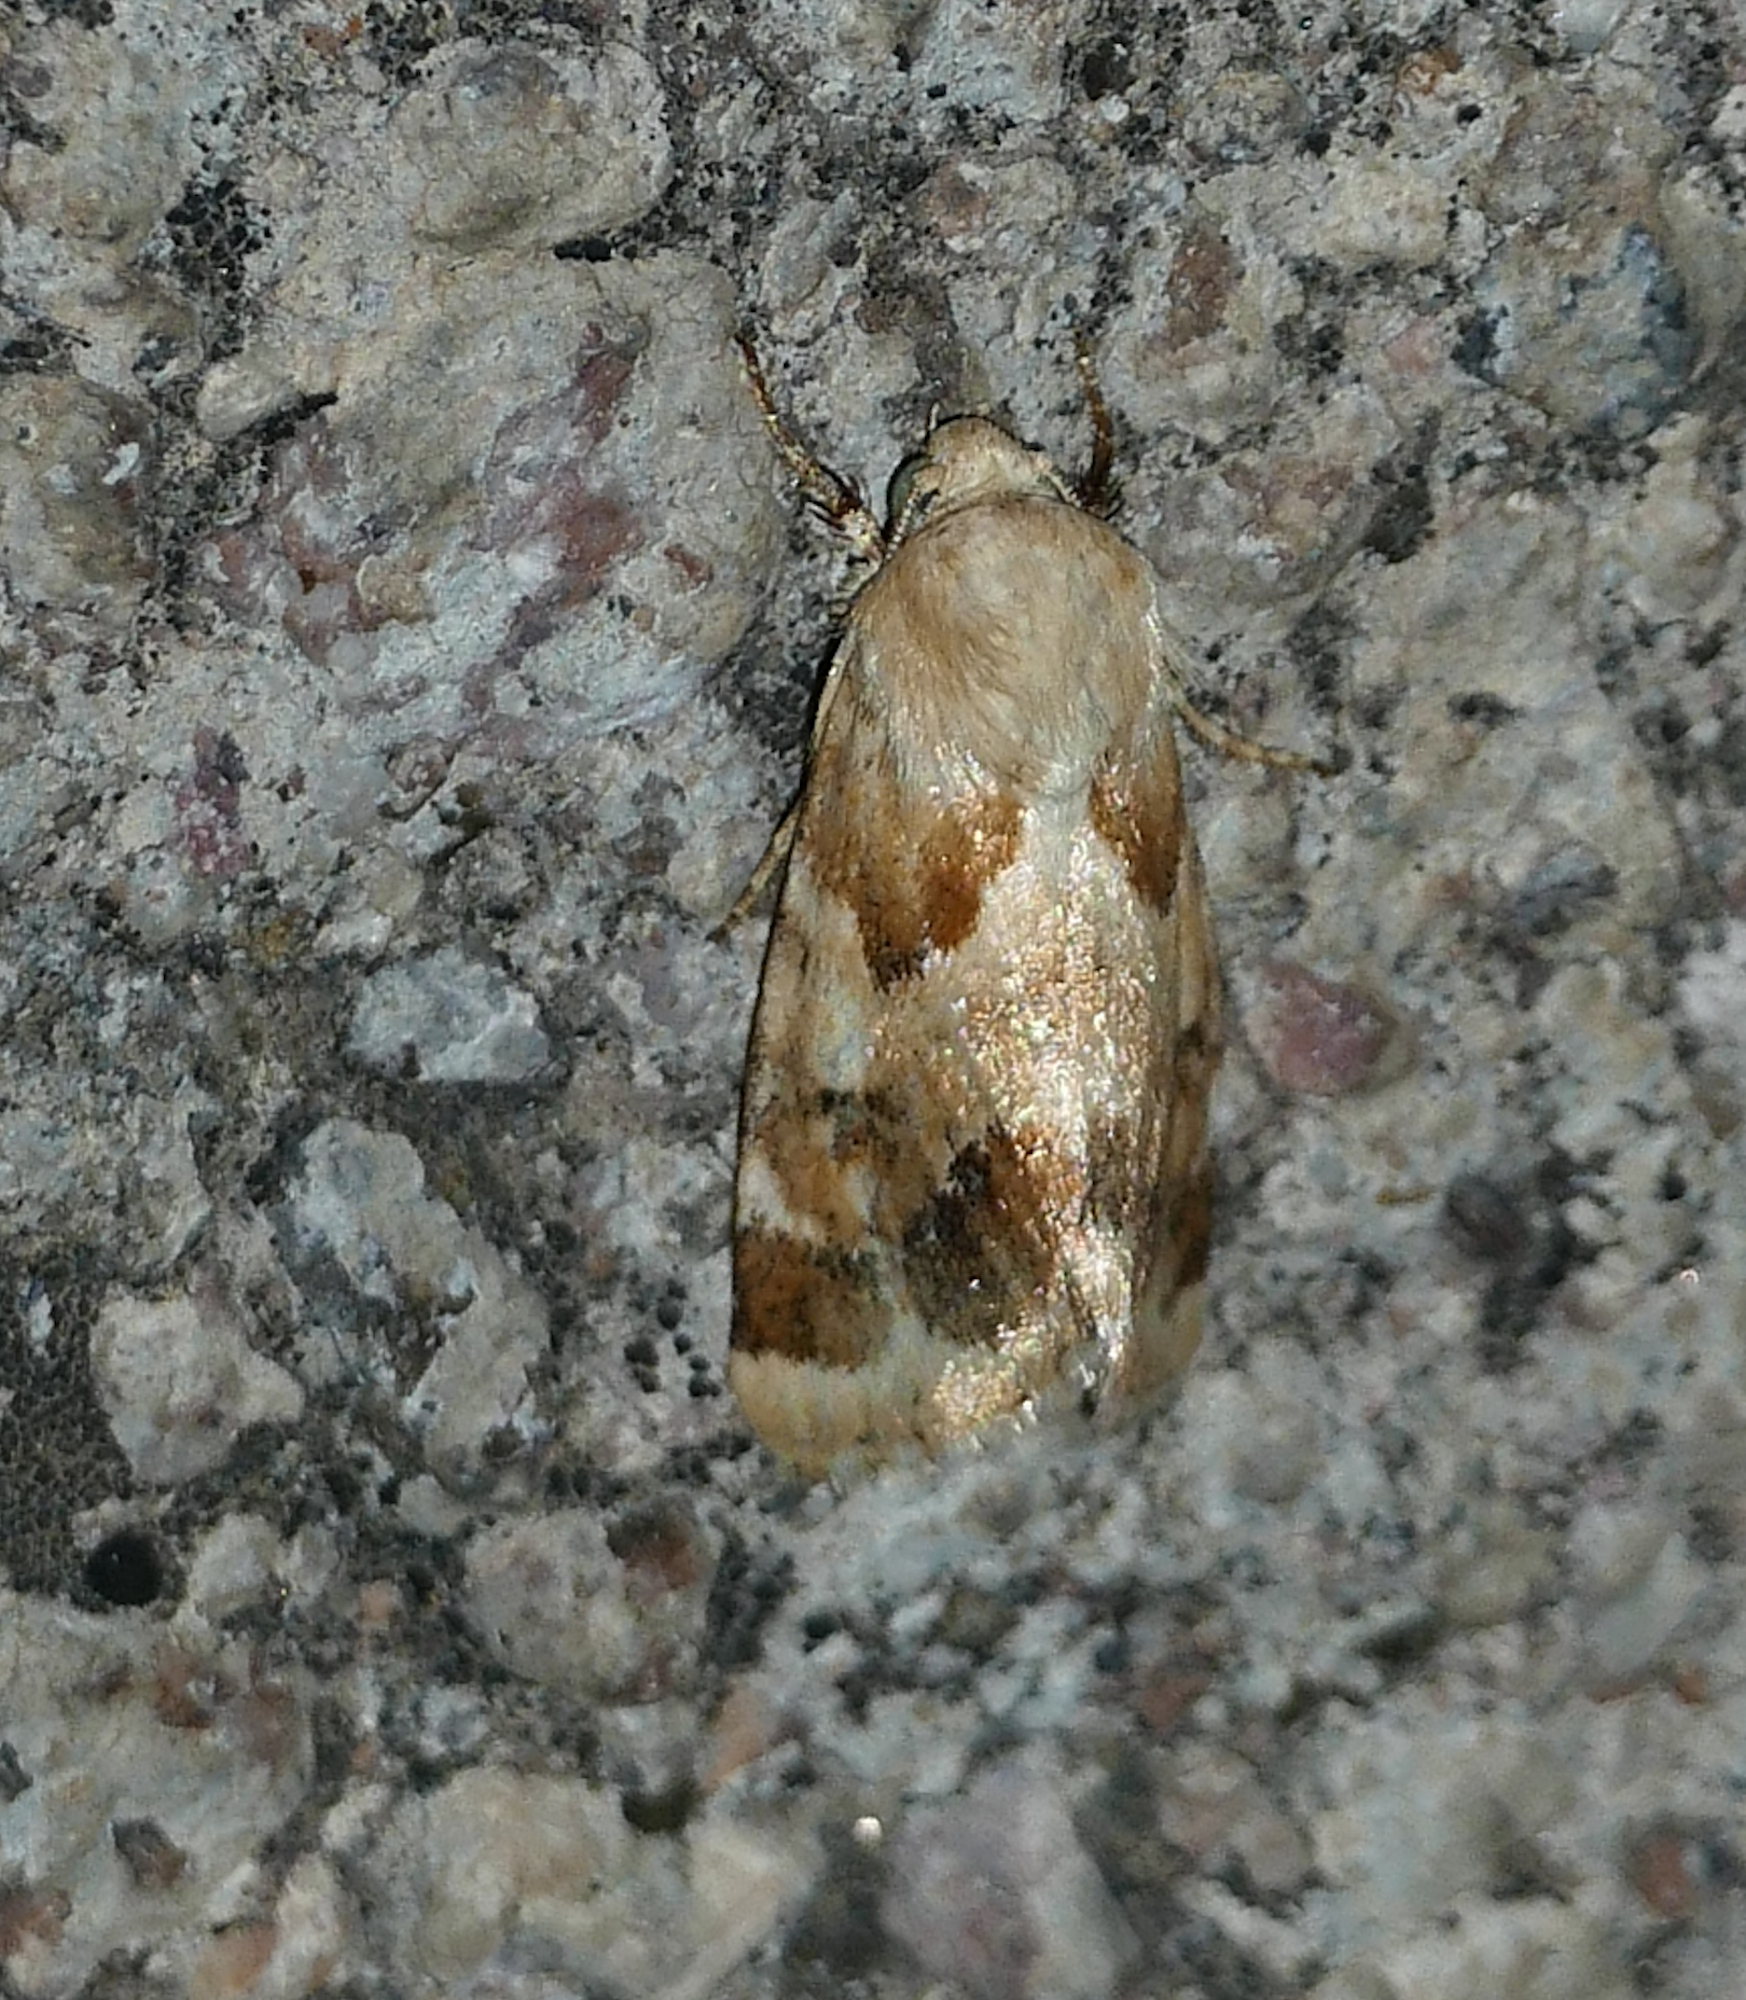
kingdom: Animalia
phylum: Arthropoda
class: Insecta
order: Lepidoptera
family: Noctuidae
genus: Schinia
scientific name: Schinia walsinghami
